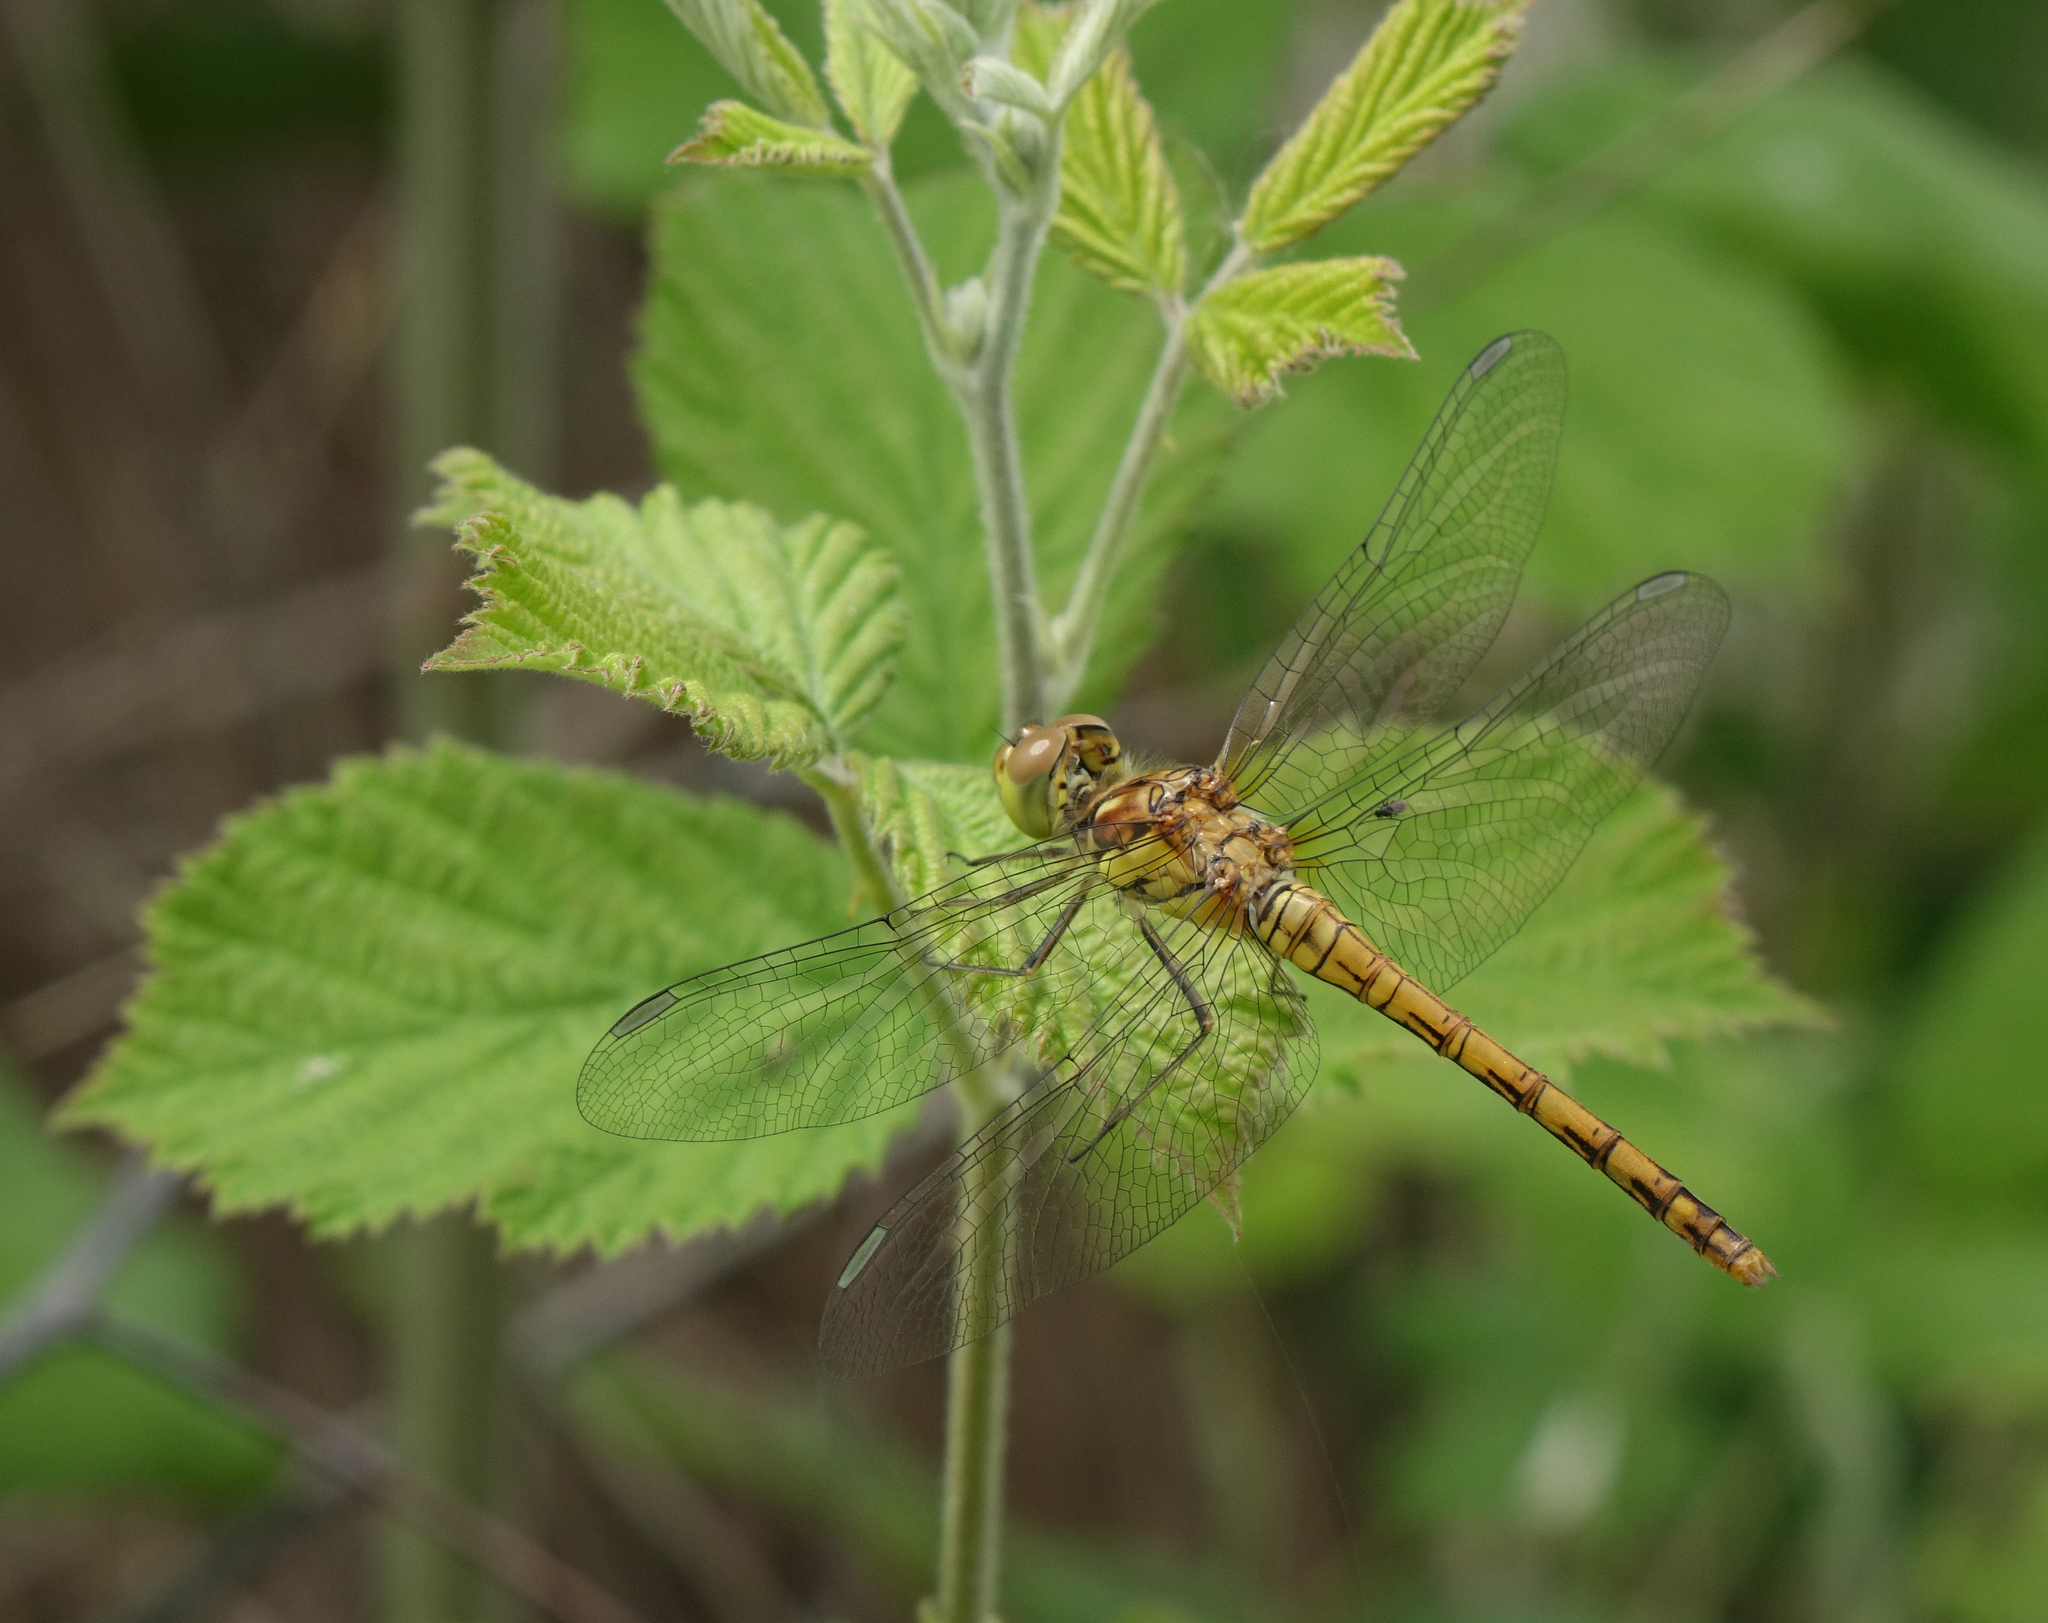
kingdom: Animalia
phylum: Arthropoda
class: Insecta
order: Odonata
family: Libellulidae
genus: Sympetrum
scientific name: Sympetrum striolatum
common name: Common darter
